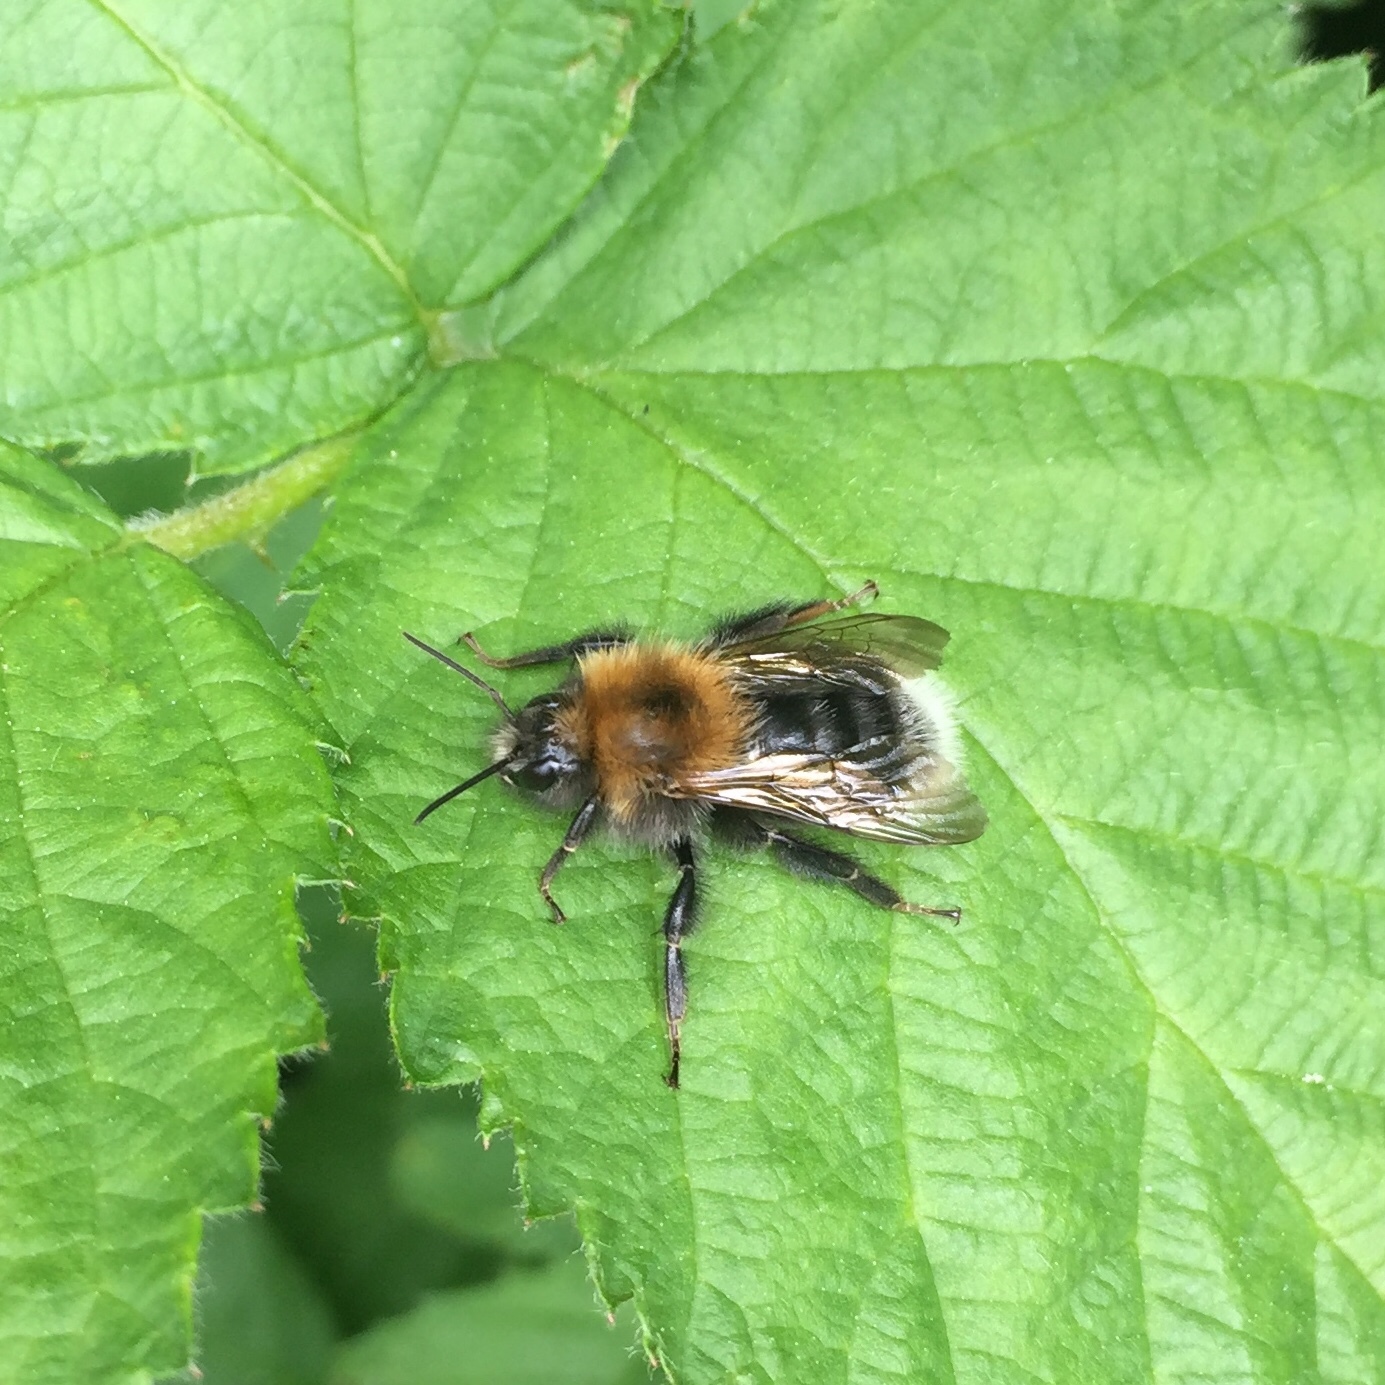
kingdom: Animalia
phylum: Arthropoda
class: Insecta
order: Hymenoptera
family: Apidae
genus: Bombus
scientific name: Bombus hypnorum
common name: New garden bumblebee
